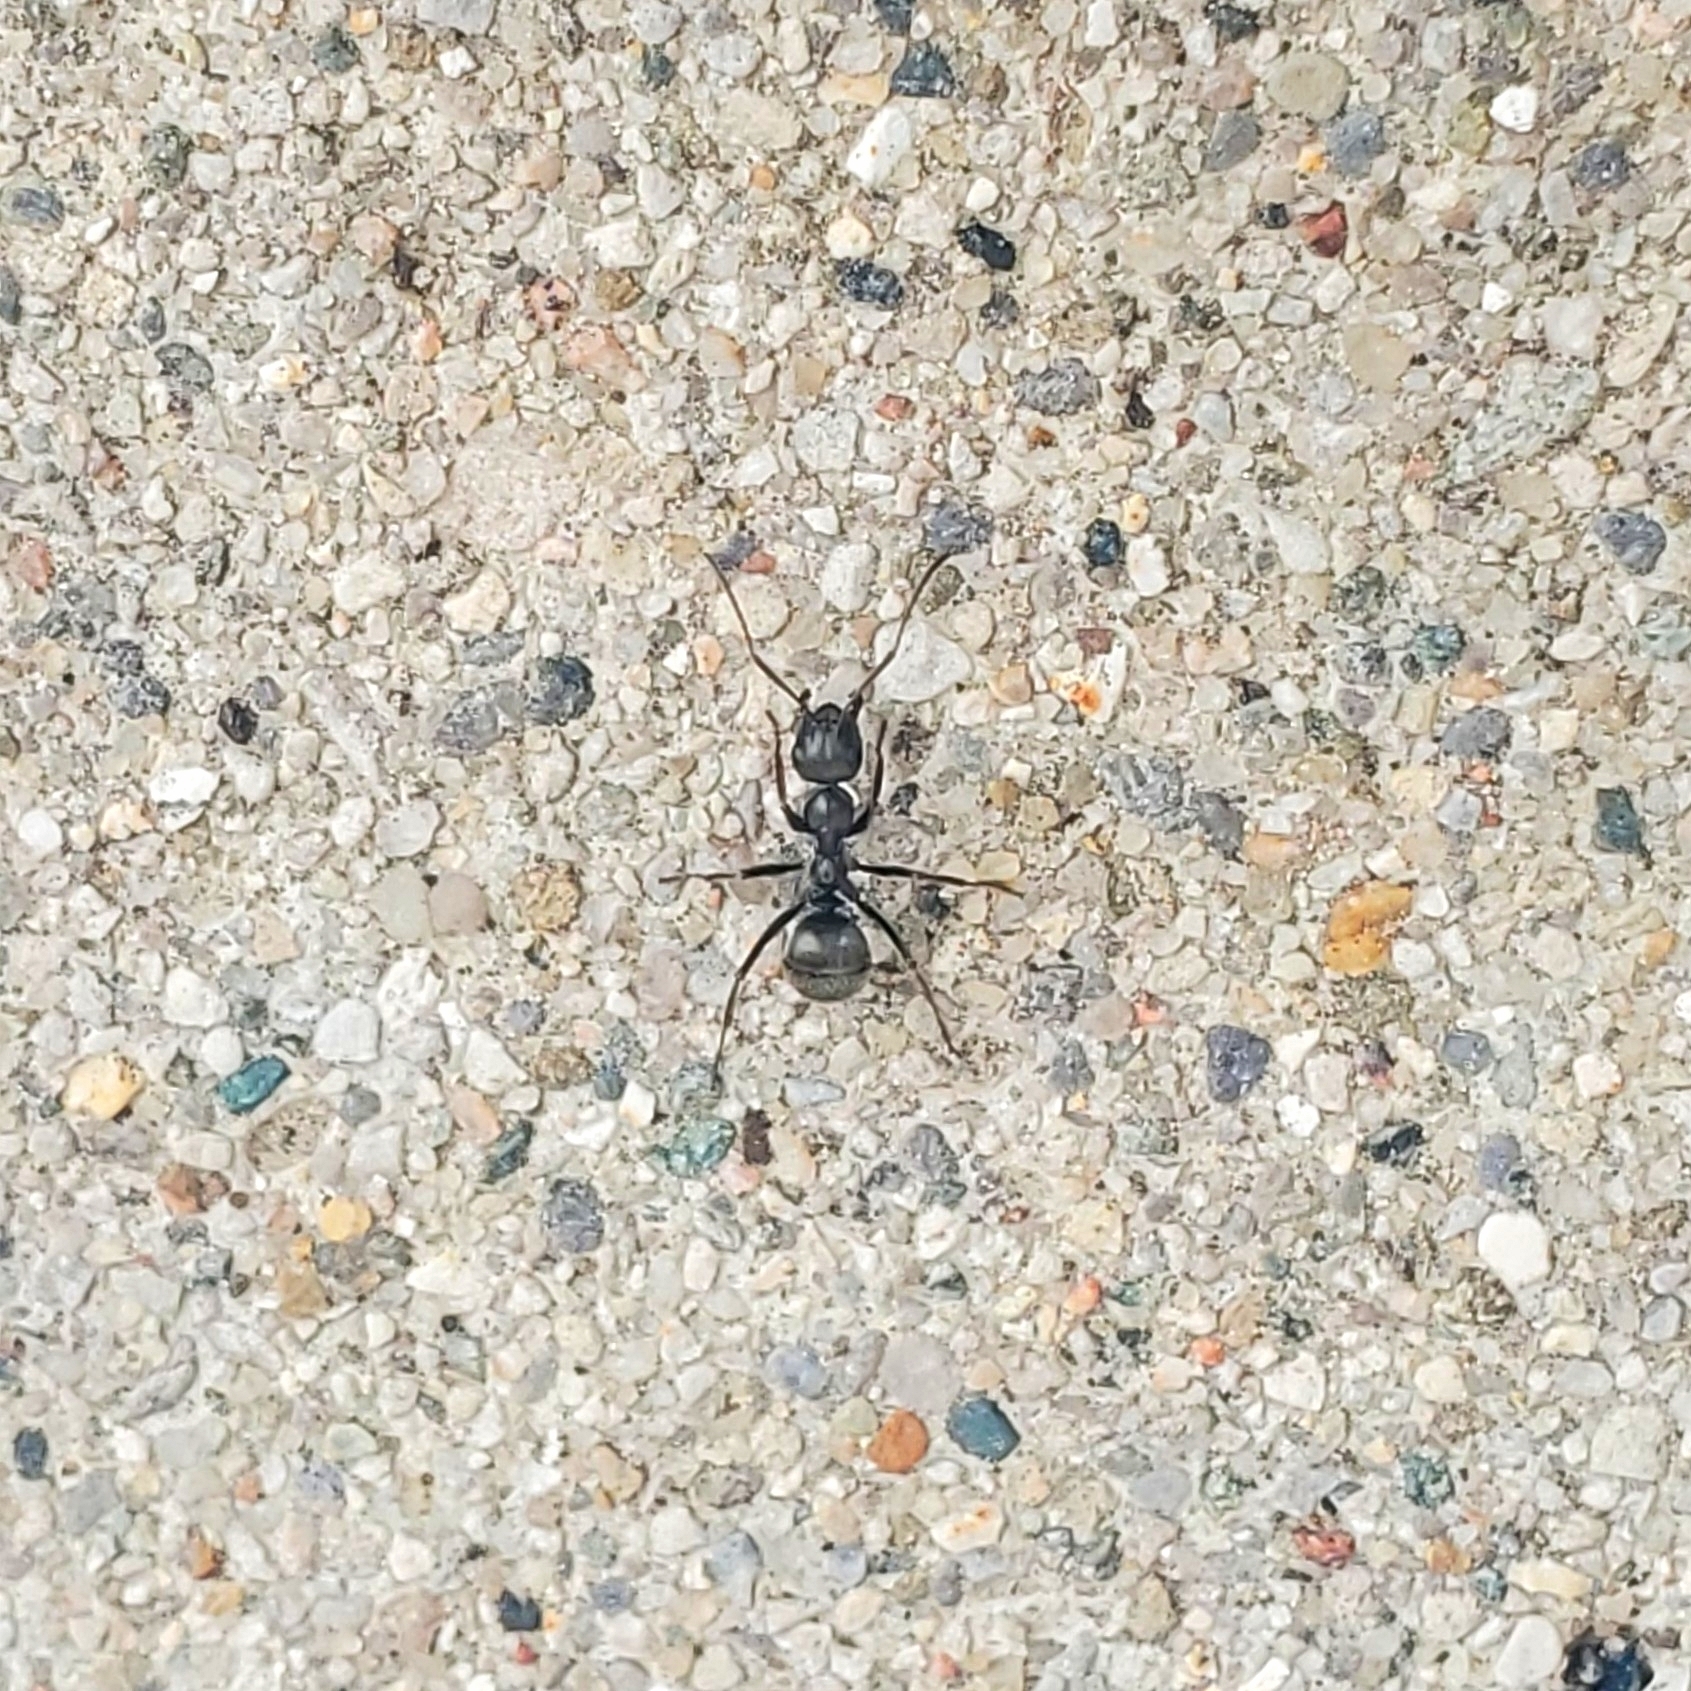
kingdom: Animalia
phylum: Arthropoda
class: Insecta
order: Hymenoptera
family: Formicidae
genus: Formica
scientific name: Formica subsericea
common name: Silky field ant
